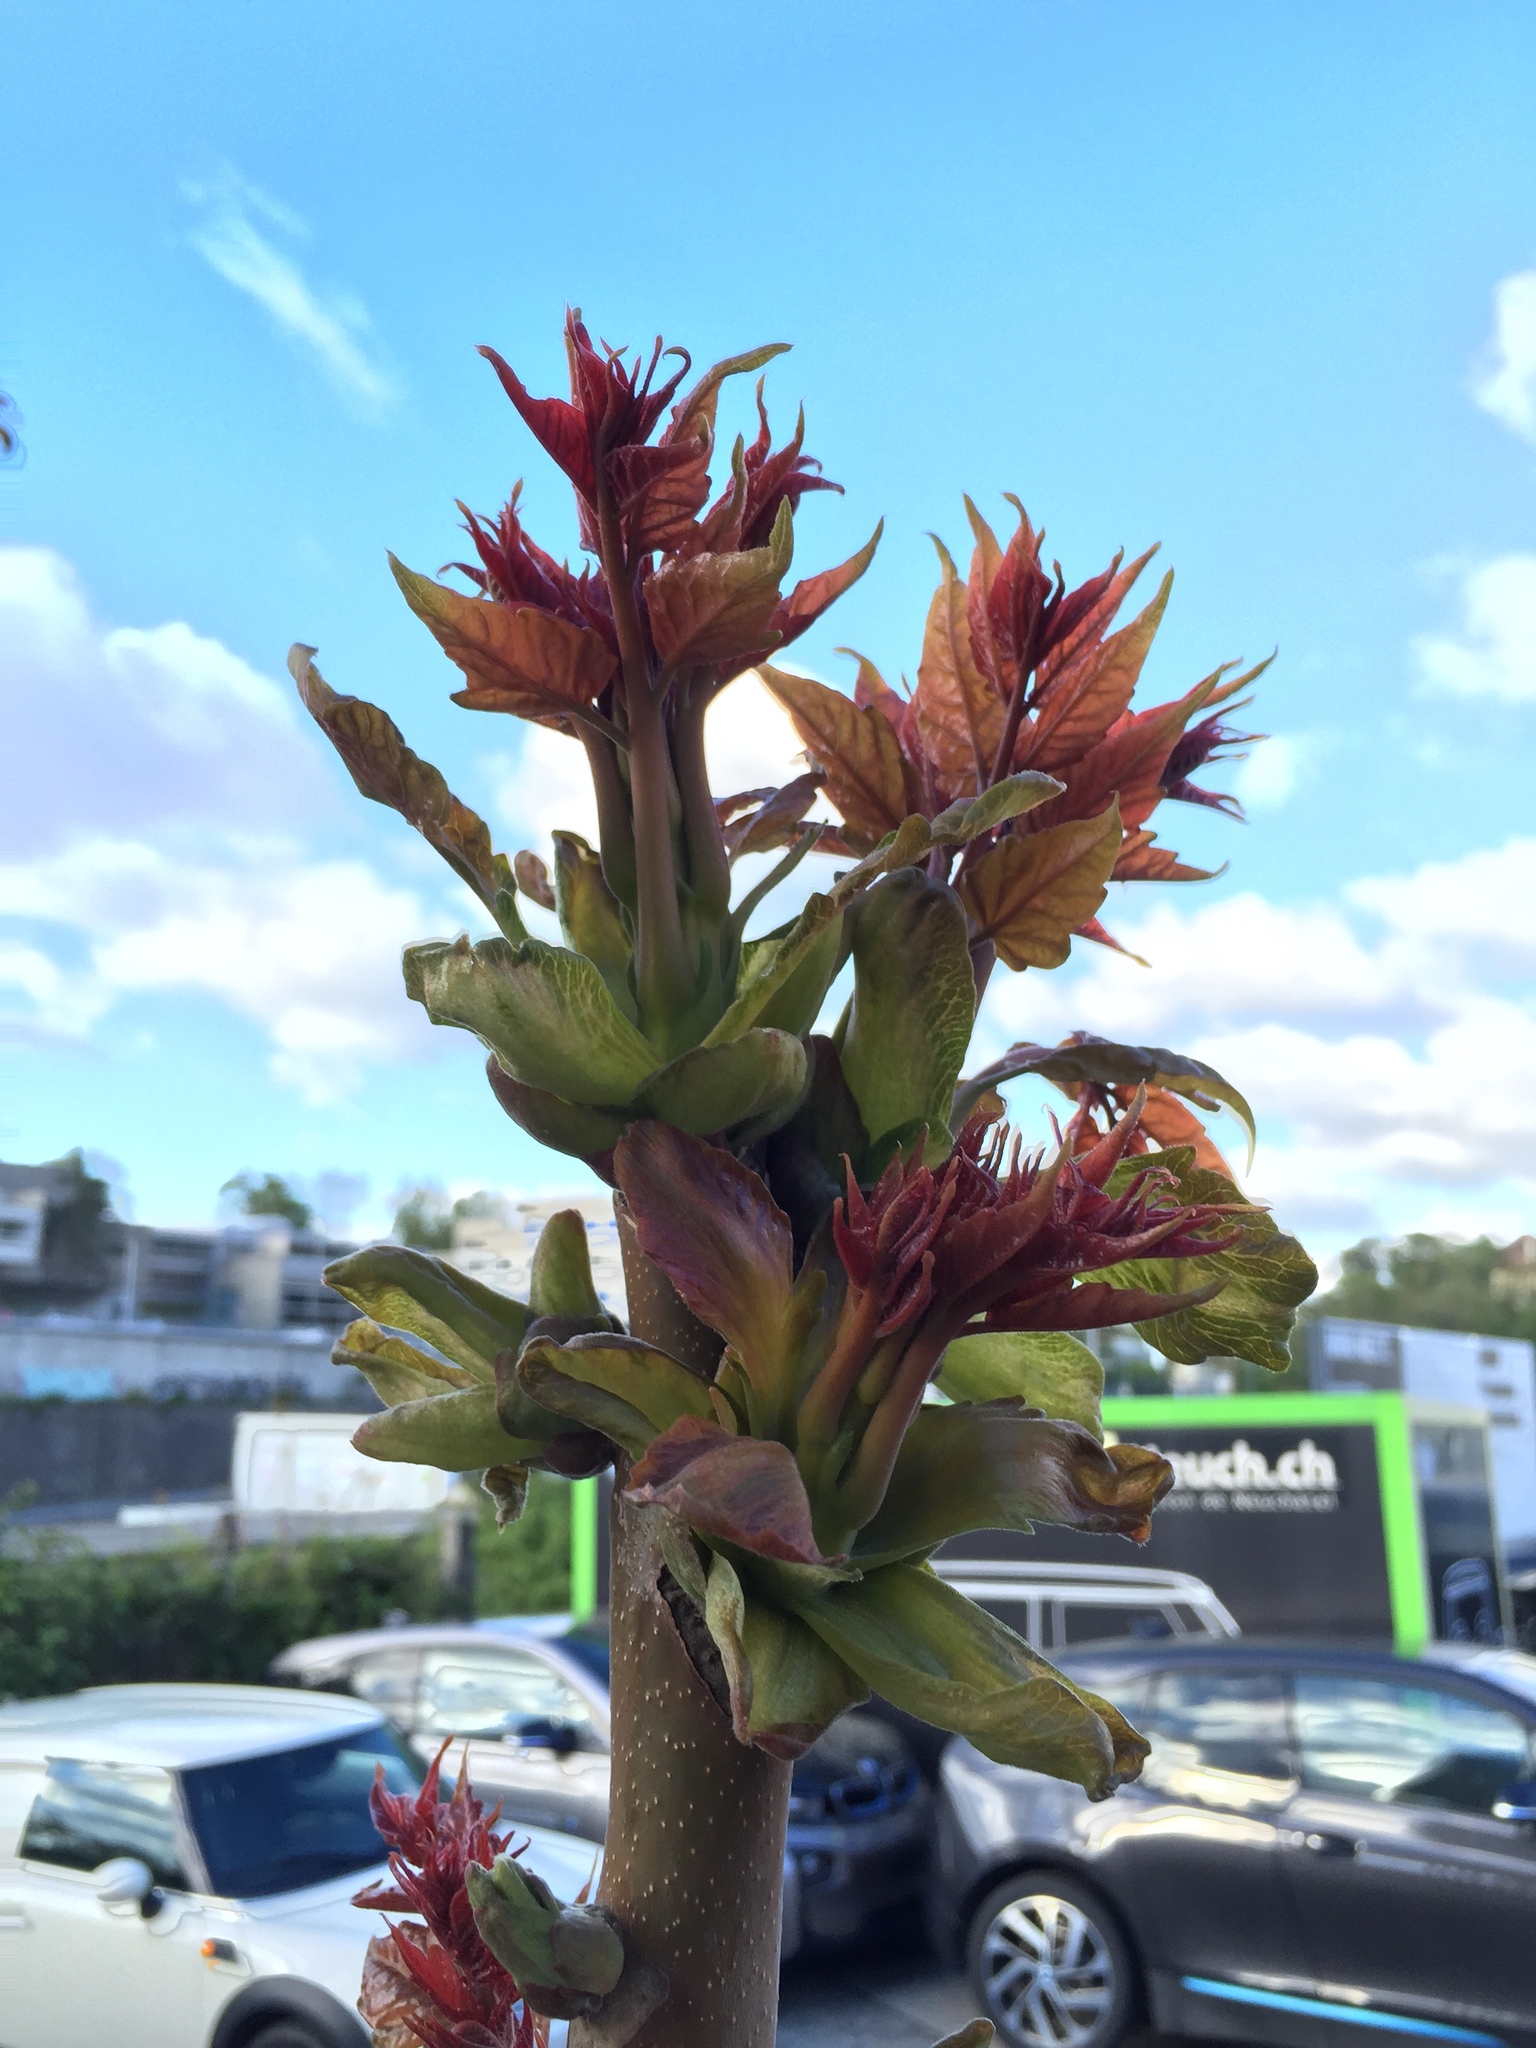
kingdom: Plantae
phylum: Tracheophyta
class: Magnoliopsida
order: Sapindales
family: Simaroubaceae
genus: Ailanthus
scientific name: Ailanthus altissima
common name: Tree-of-heaven
